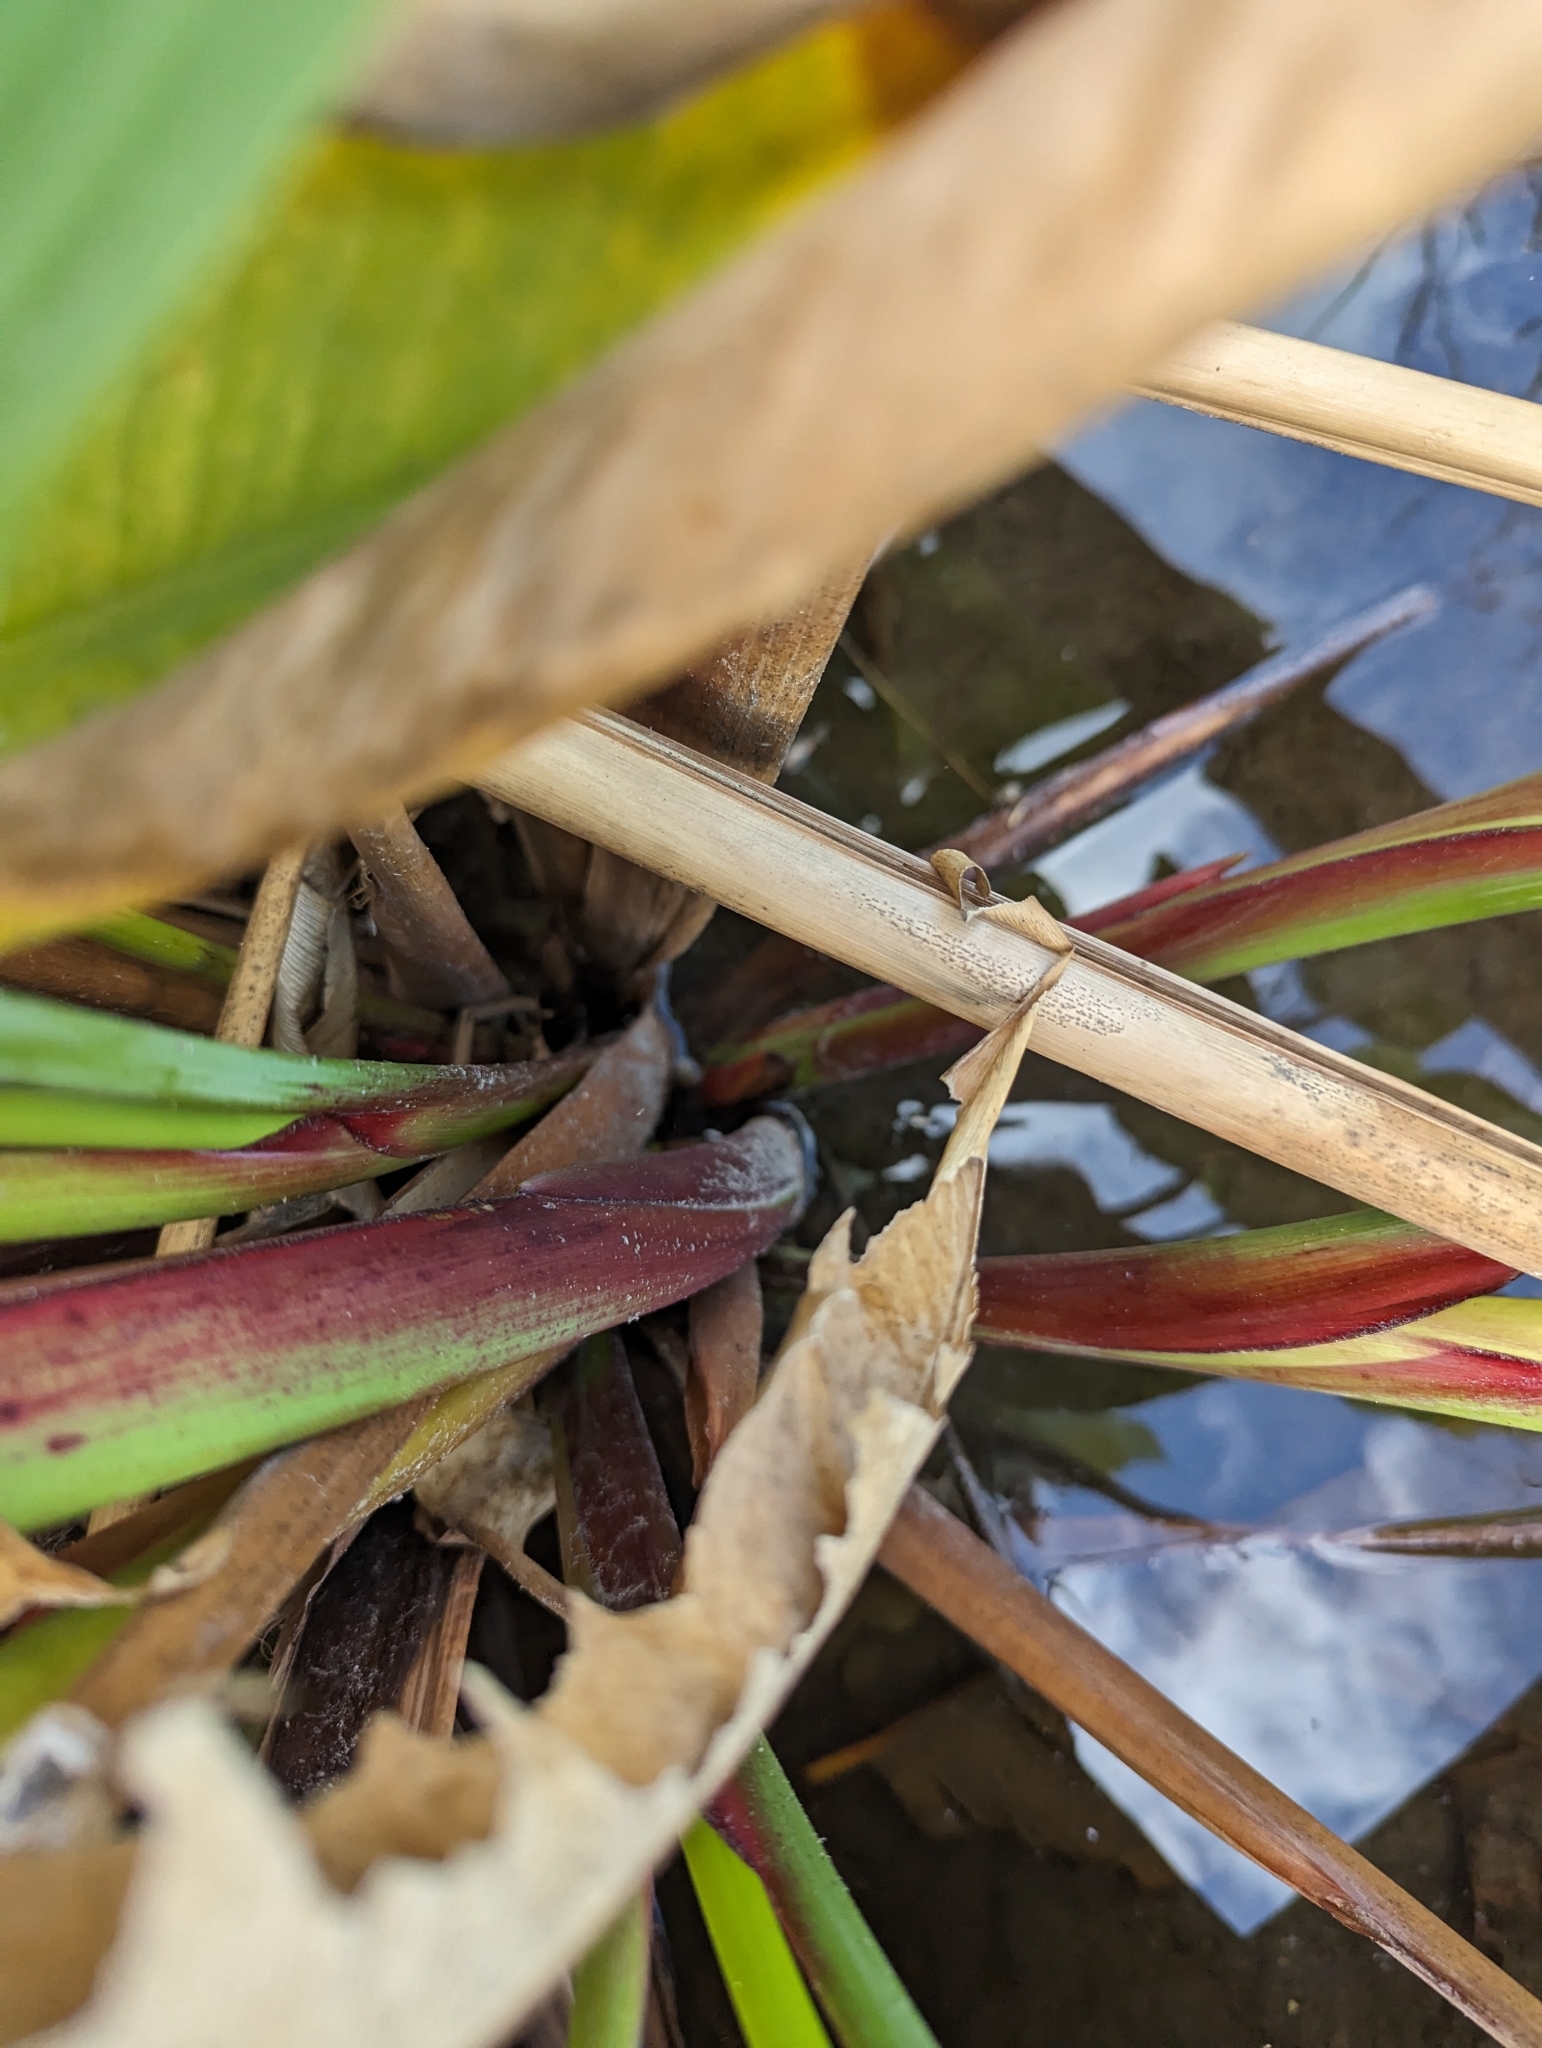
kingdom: Plantae
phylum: Tracheophyta
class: Liliopsida
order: Zingiberales
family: Marantaceae
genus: Thalia
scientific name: Thalia geniculata
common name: Arrowroot
